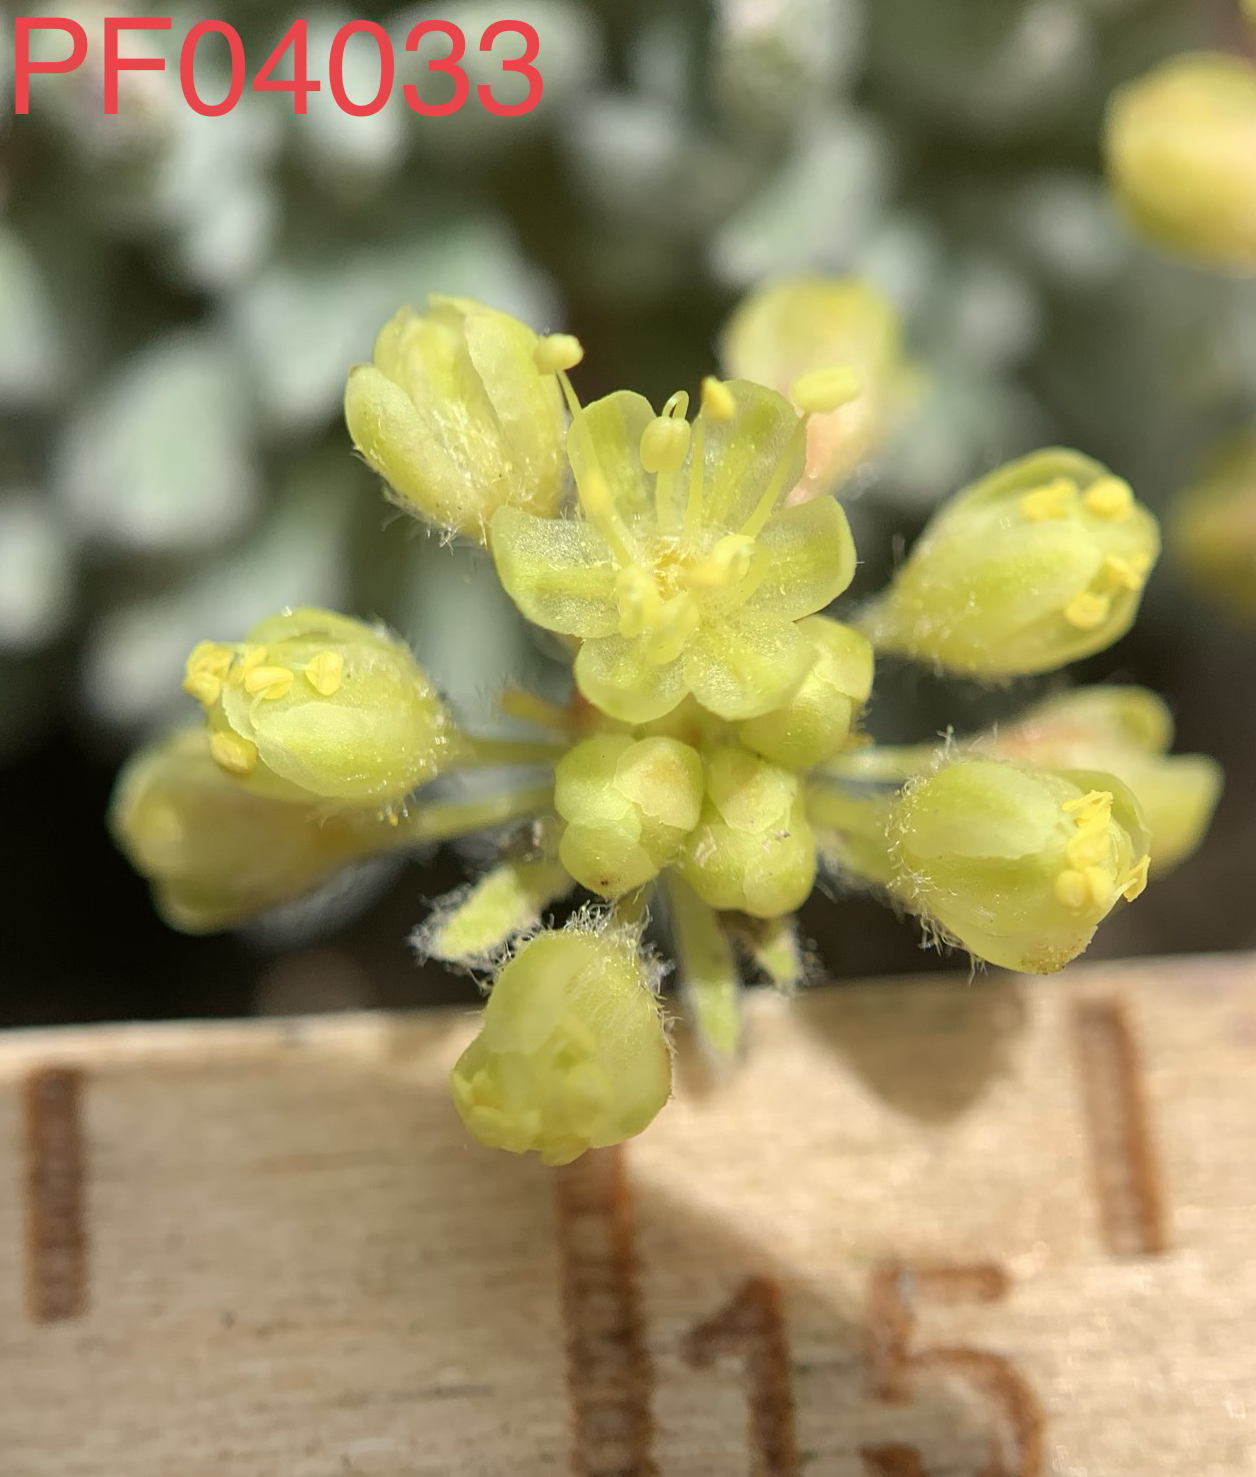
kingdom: Plantae
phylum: Tracheophyta
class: Magnoliopsida
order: Caryophyllales
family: Polygonaceae
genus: Eriogonum
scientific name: Eriogonum caespitosum
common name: Matted wild buckwheat
